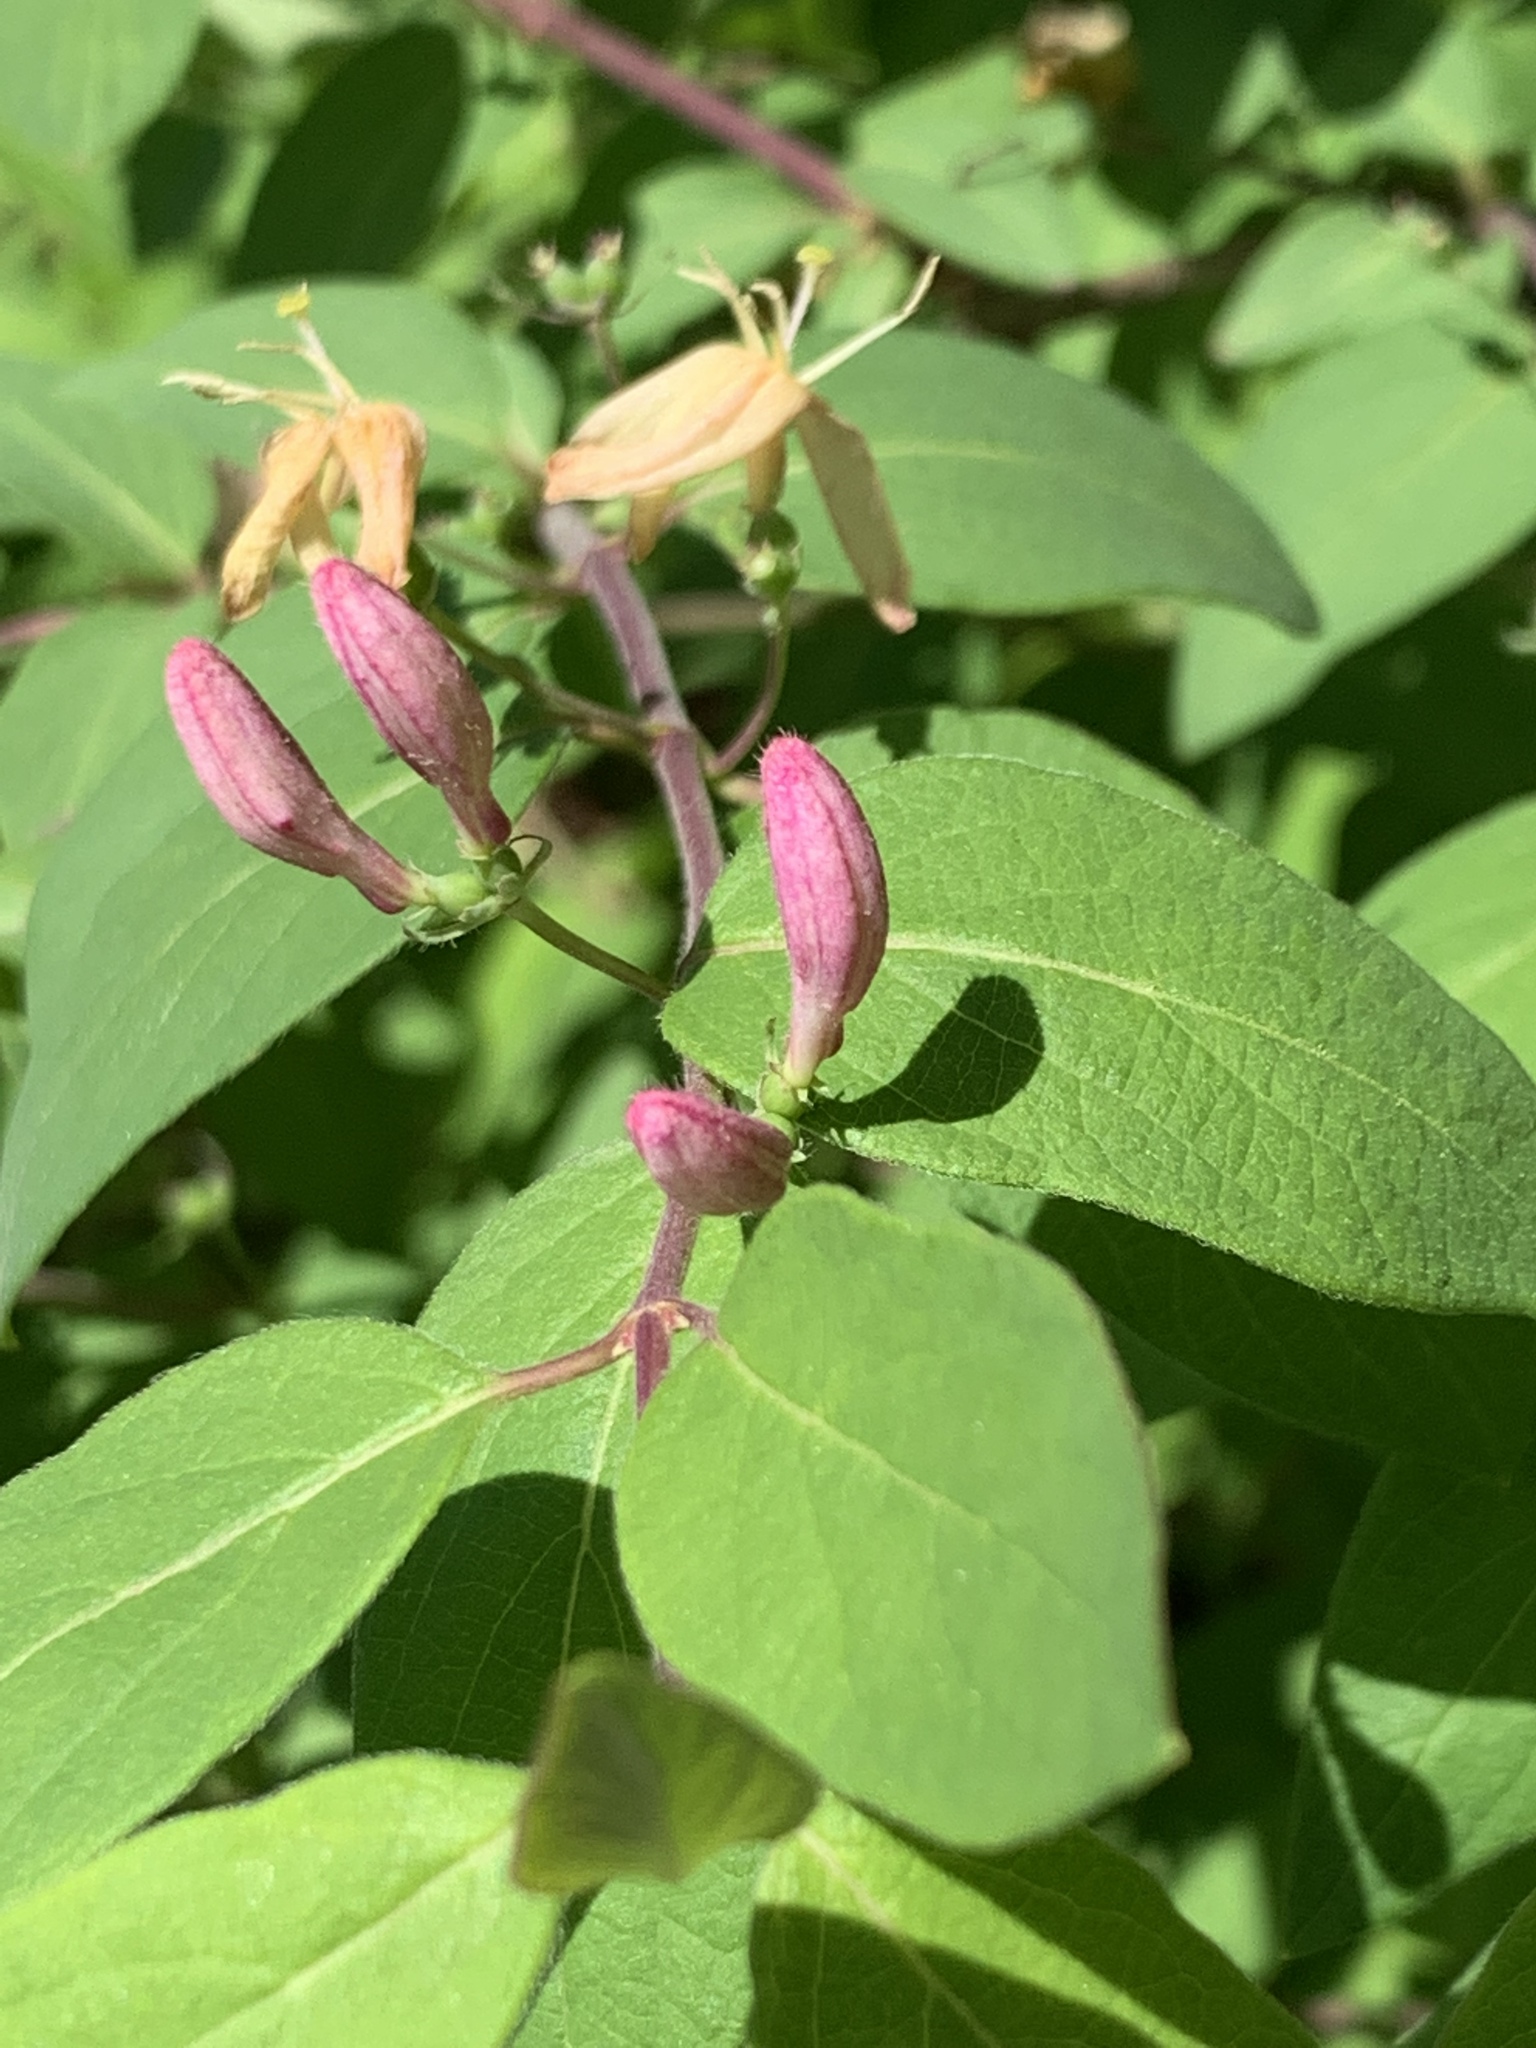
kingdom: Plantae
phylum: Tracheophyta
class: Magnoliopsida
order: Dipsacales
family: Caprifoliaceae
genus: Lonicera
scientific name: Lonicera
